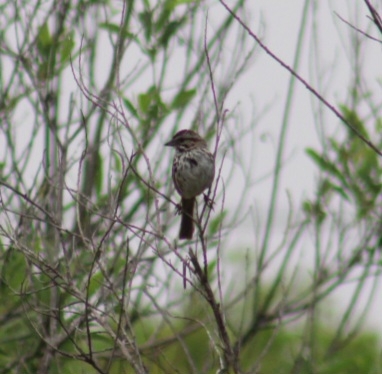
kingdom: Animalia
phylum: Chordata
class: Aves
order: Passeriformes
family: Passerellidae
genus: Melospiza
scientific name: Melospiza melodia
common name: Song sparrow
